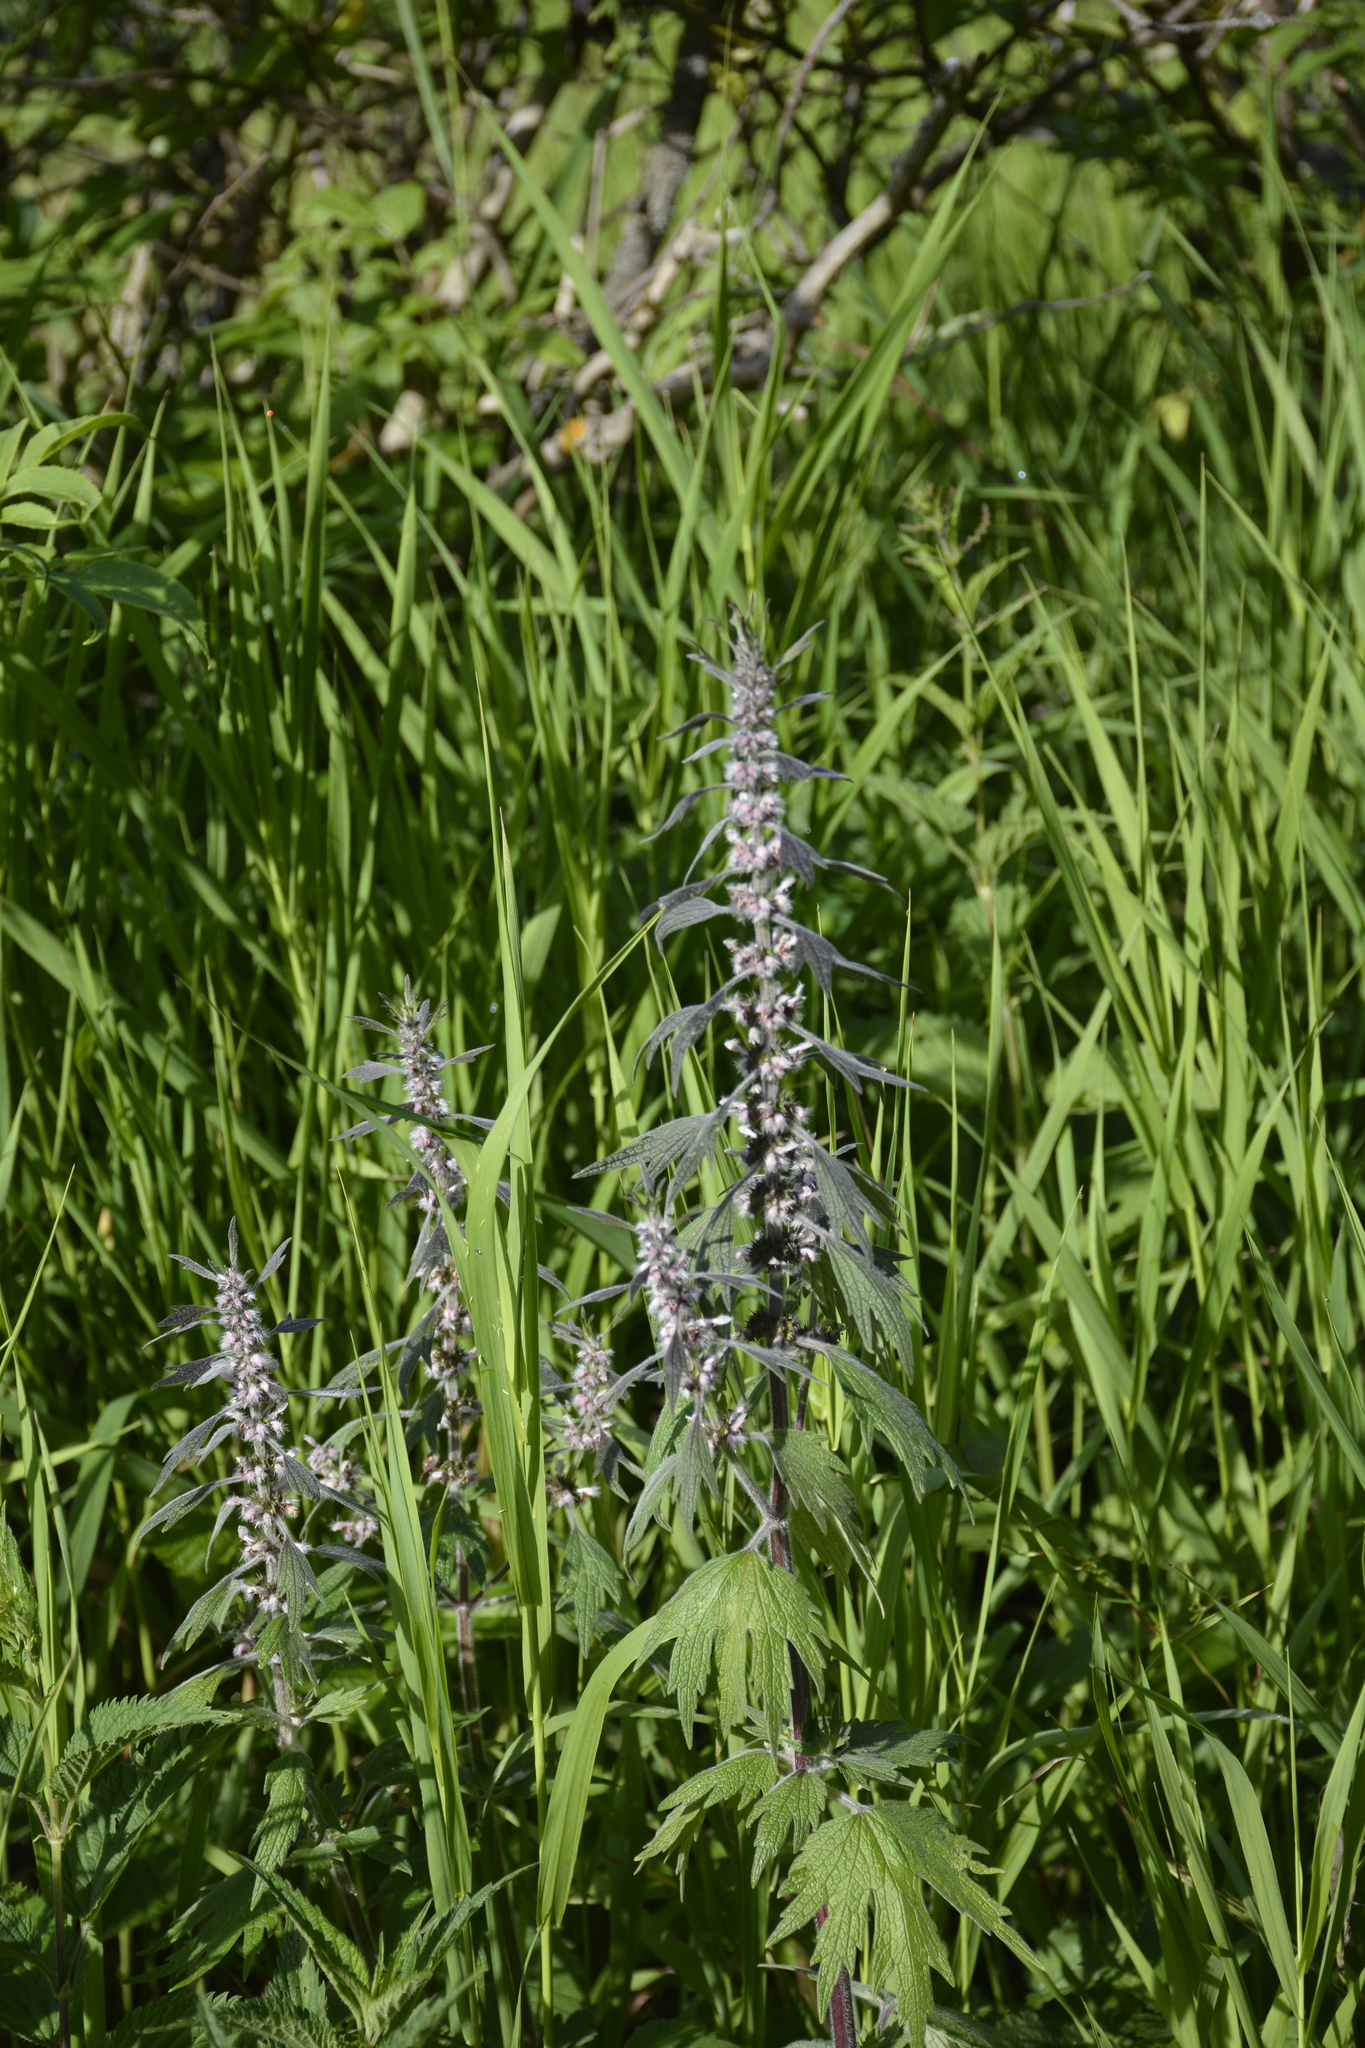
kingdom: Plantae
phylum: Tracheophyta
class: Magnoliopsida
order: Lamiales
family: Lamiaceae
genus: Leonurus
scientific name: Leonurus quinquelobatus
